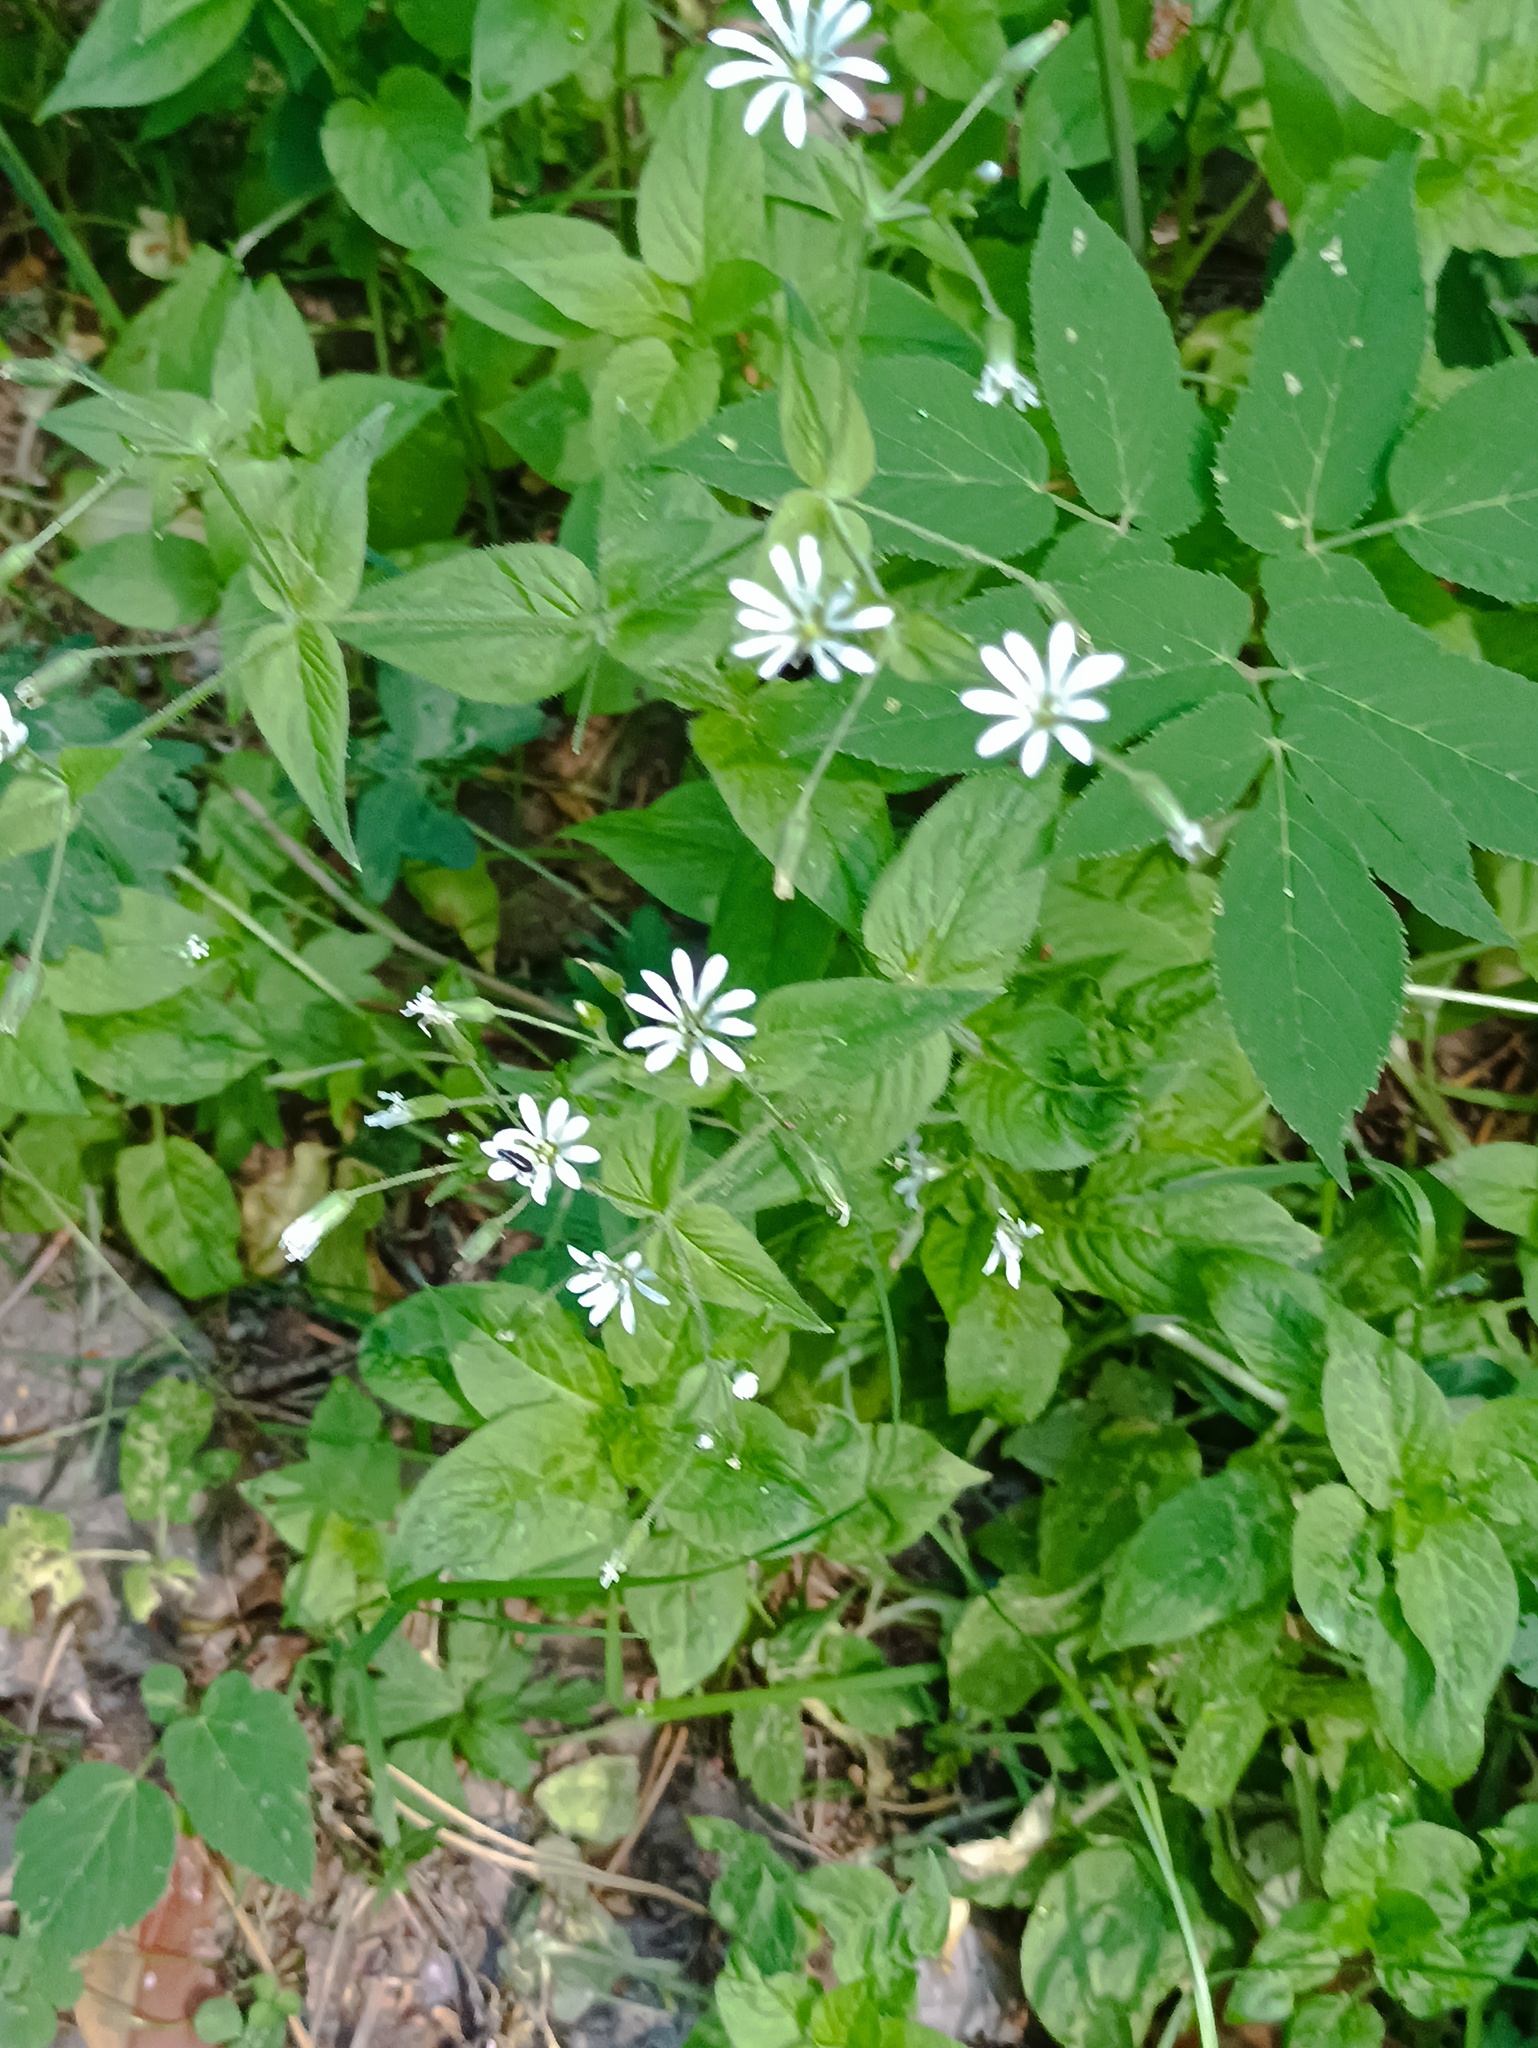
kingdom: Plantae
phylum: Tracheophyta
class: Magnoliopsida
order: Caryophyllales
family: Caryophyllaceae
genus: Stellaria
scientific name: Stellaria nemorum
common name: Wood stitchwort
